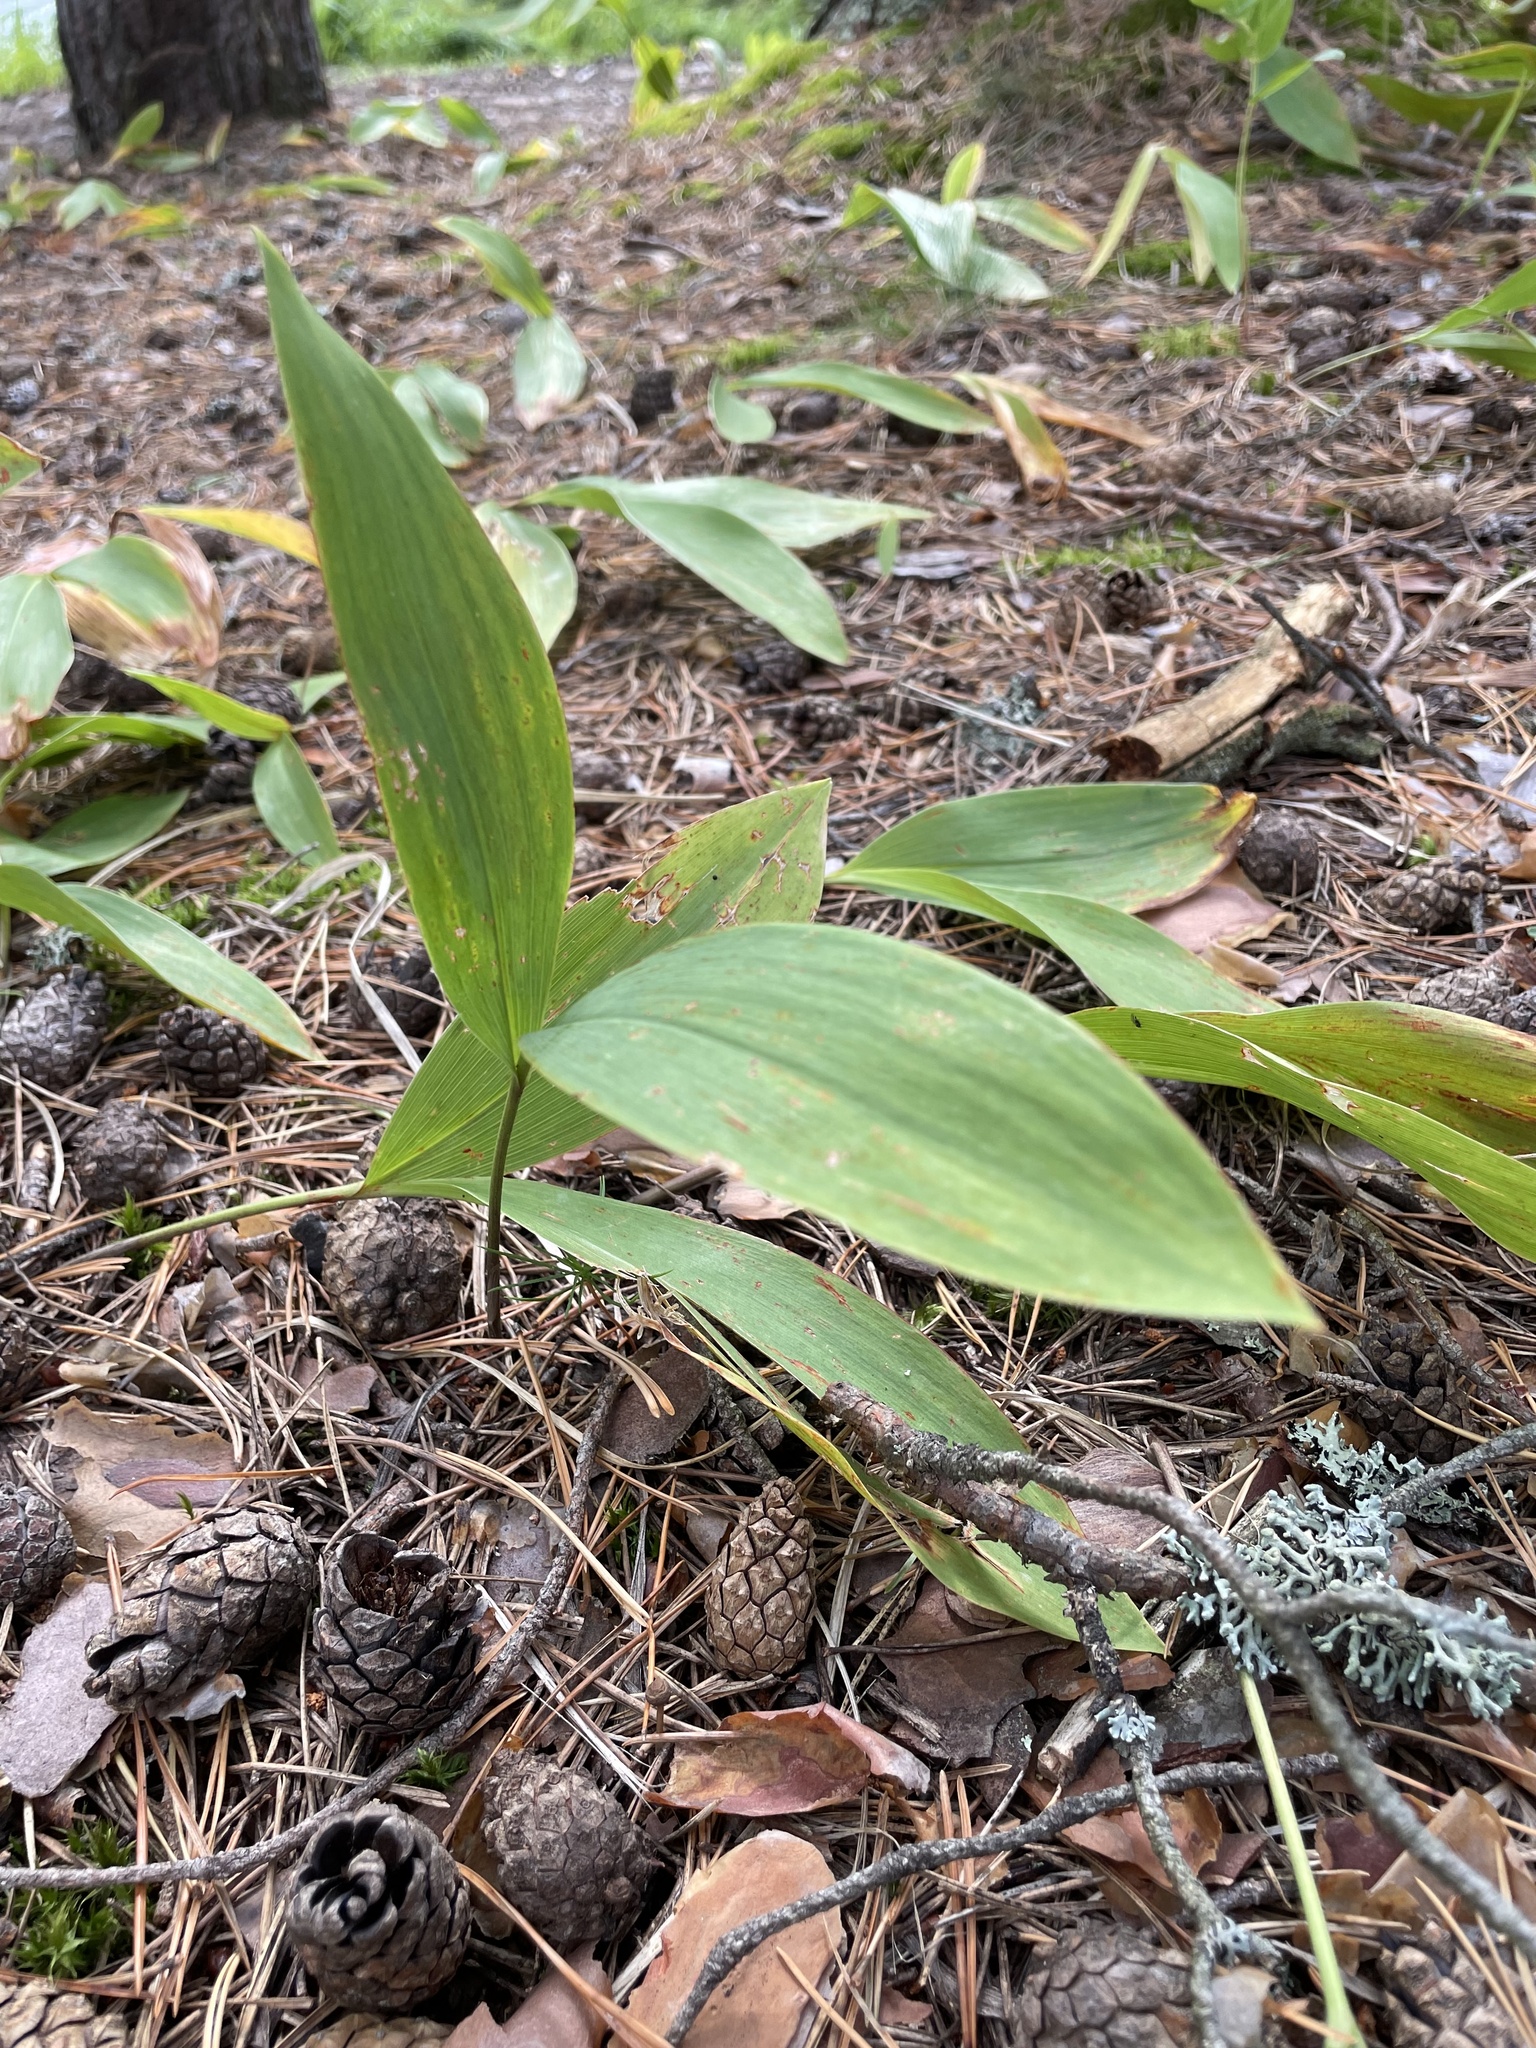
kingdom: Plantae
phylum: Tracheophyta
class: Liliopsida
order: Asparagales
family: Asparagaceae
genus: Convallaria
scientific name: Convallaria majalis
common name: Lily-of-the-valley
